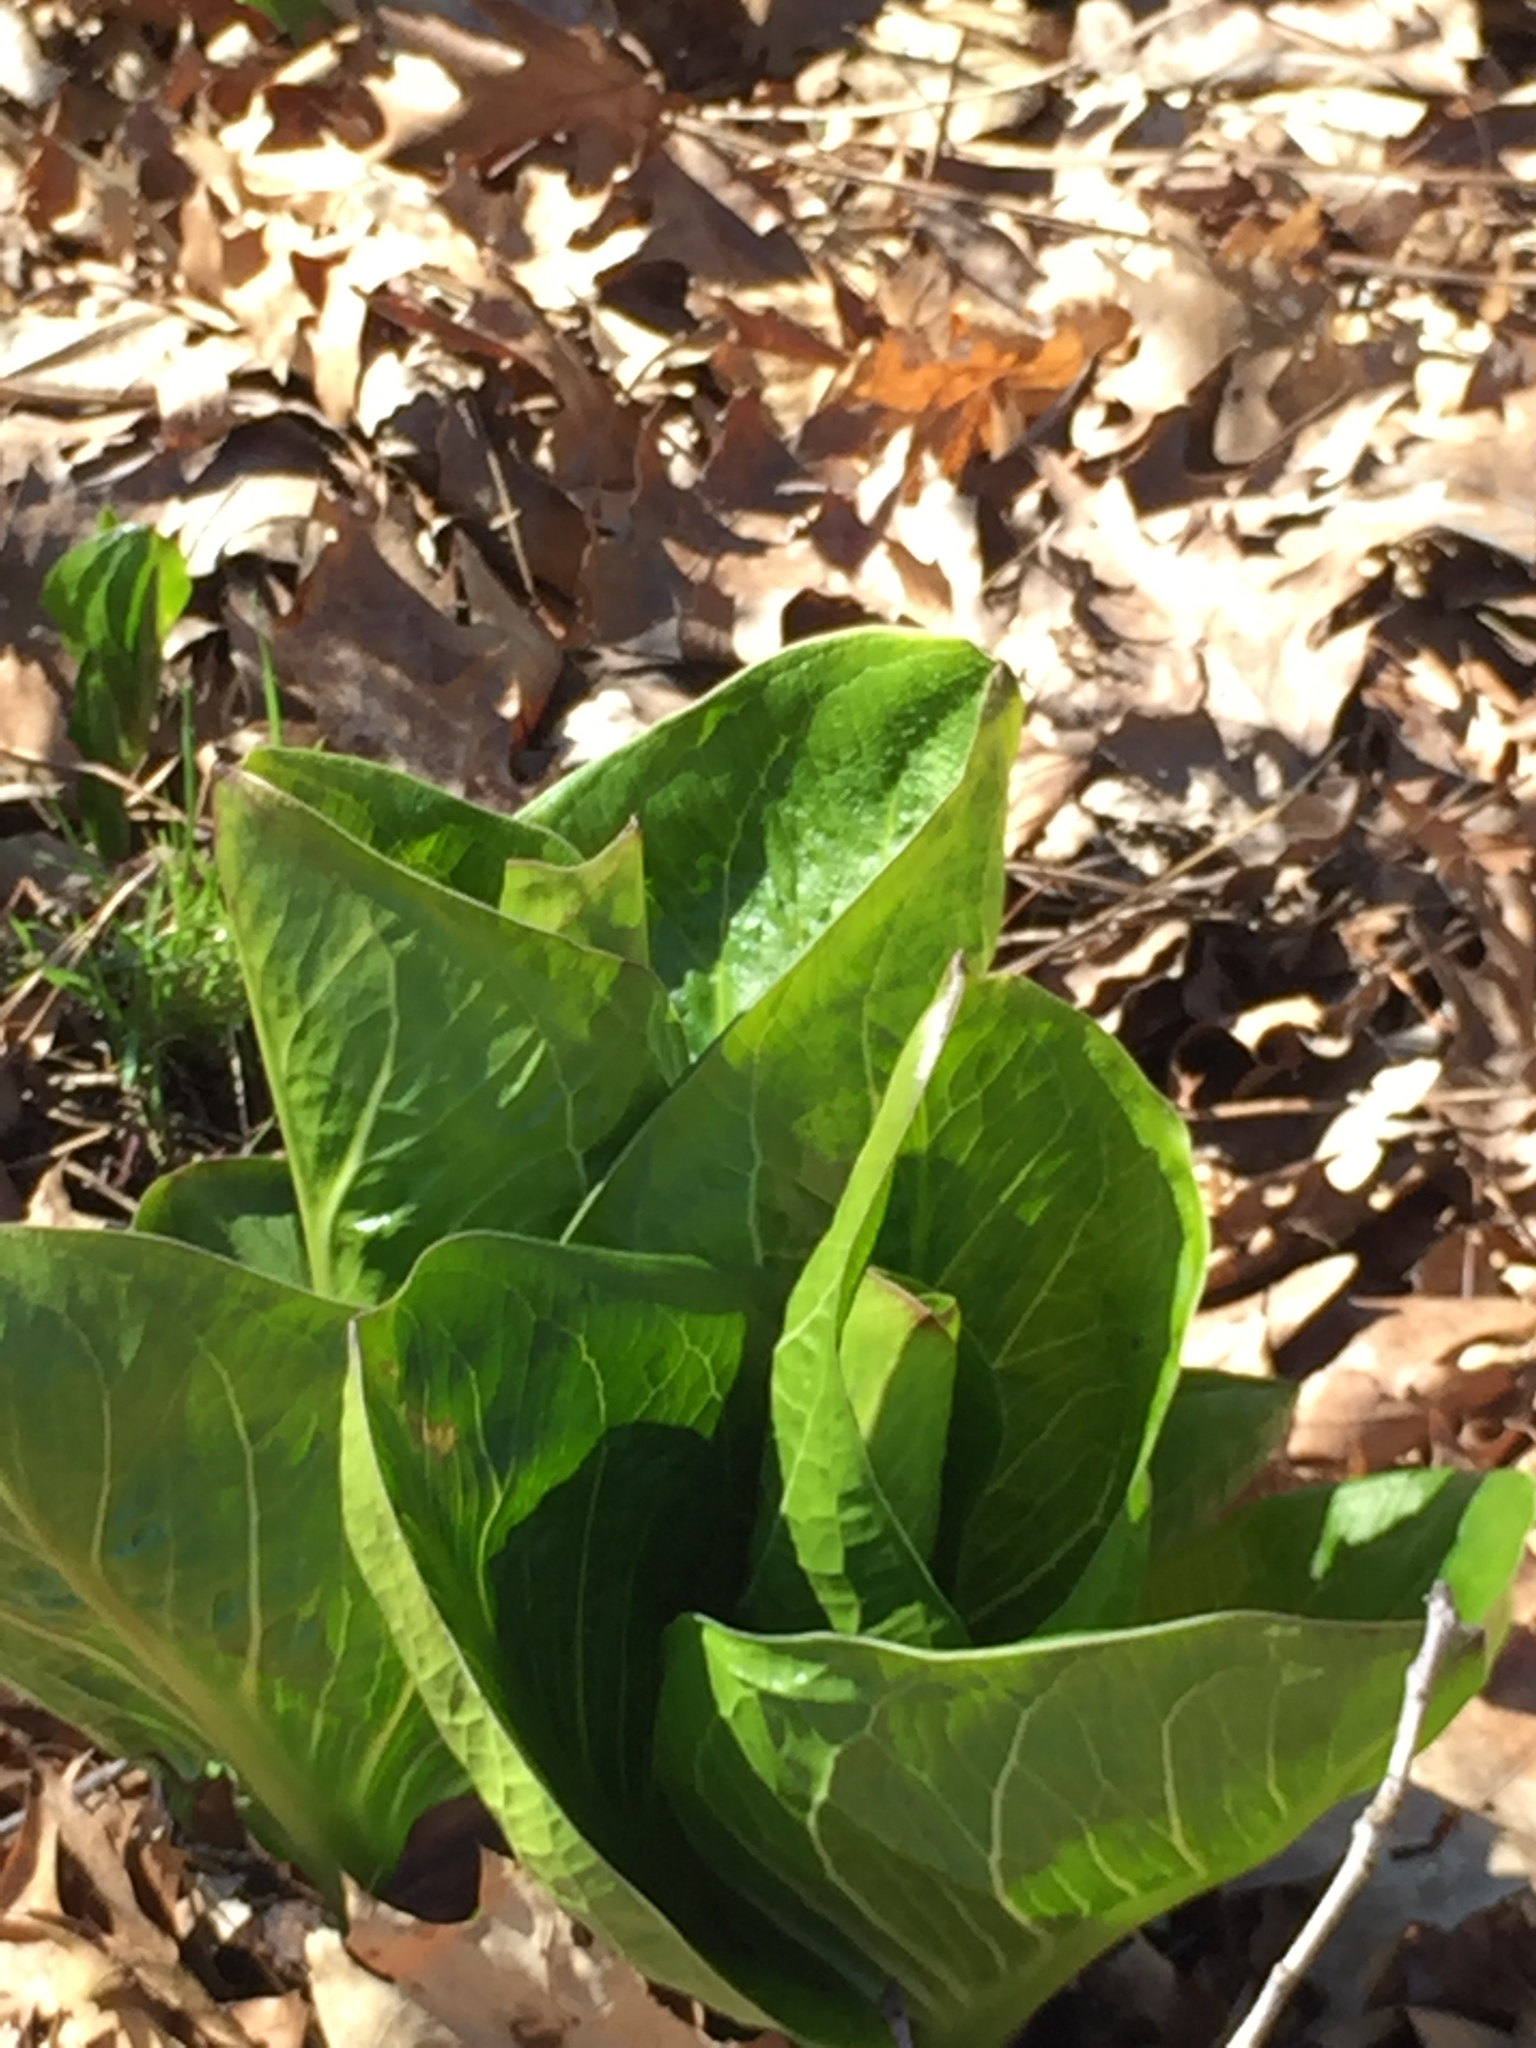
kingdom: Plantae
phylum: Tracheophyta
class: Liliopsida
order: Alismatales
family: Araceae
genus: Symplocarpus
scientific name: Symplocarpus foetidus
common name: Eastern skunk cabbage
